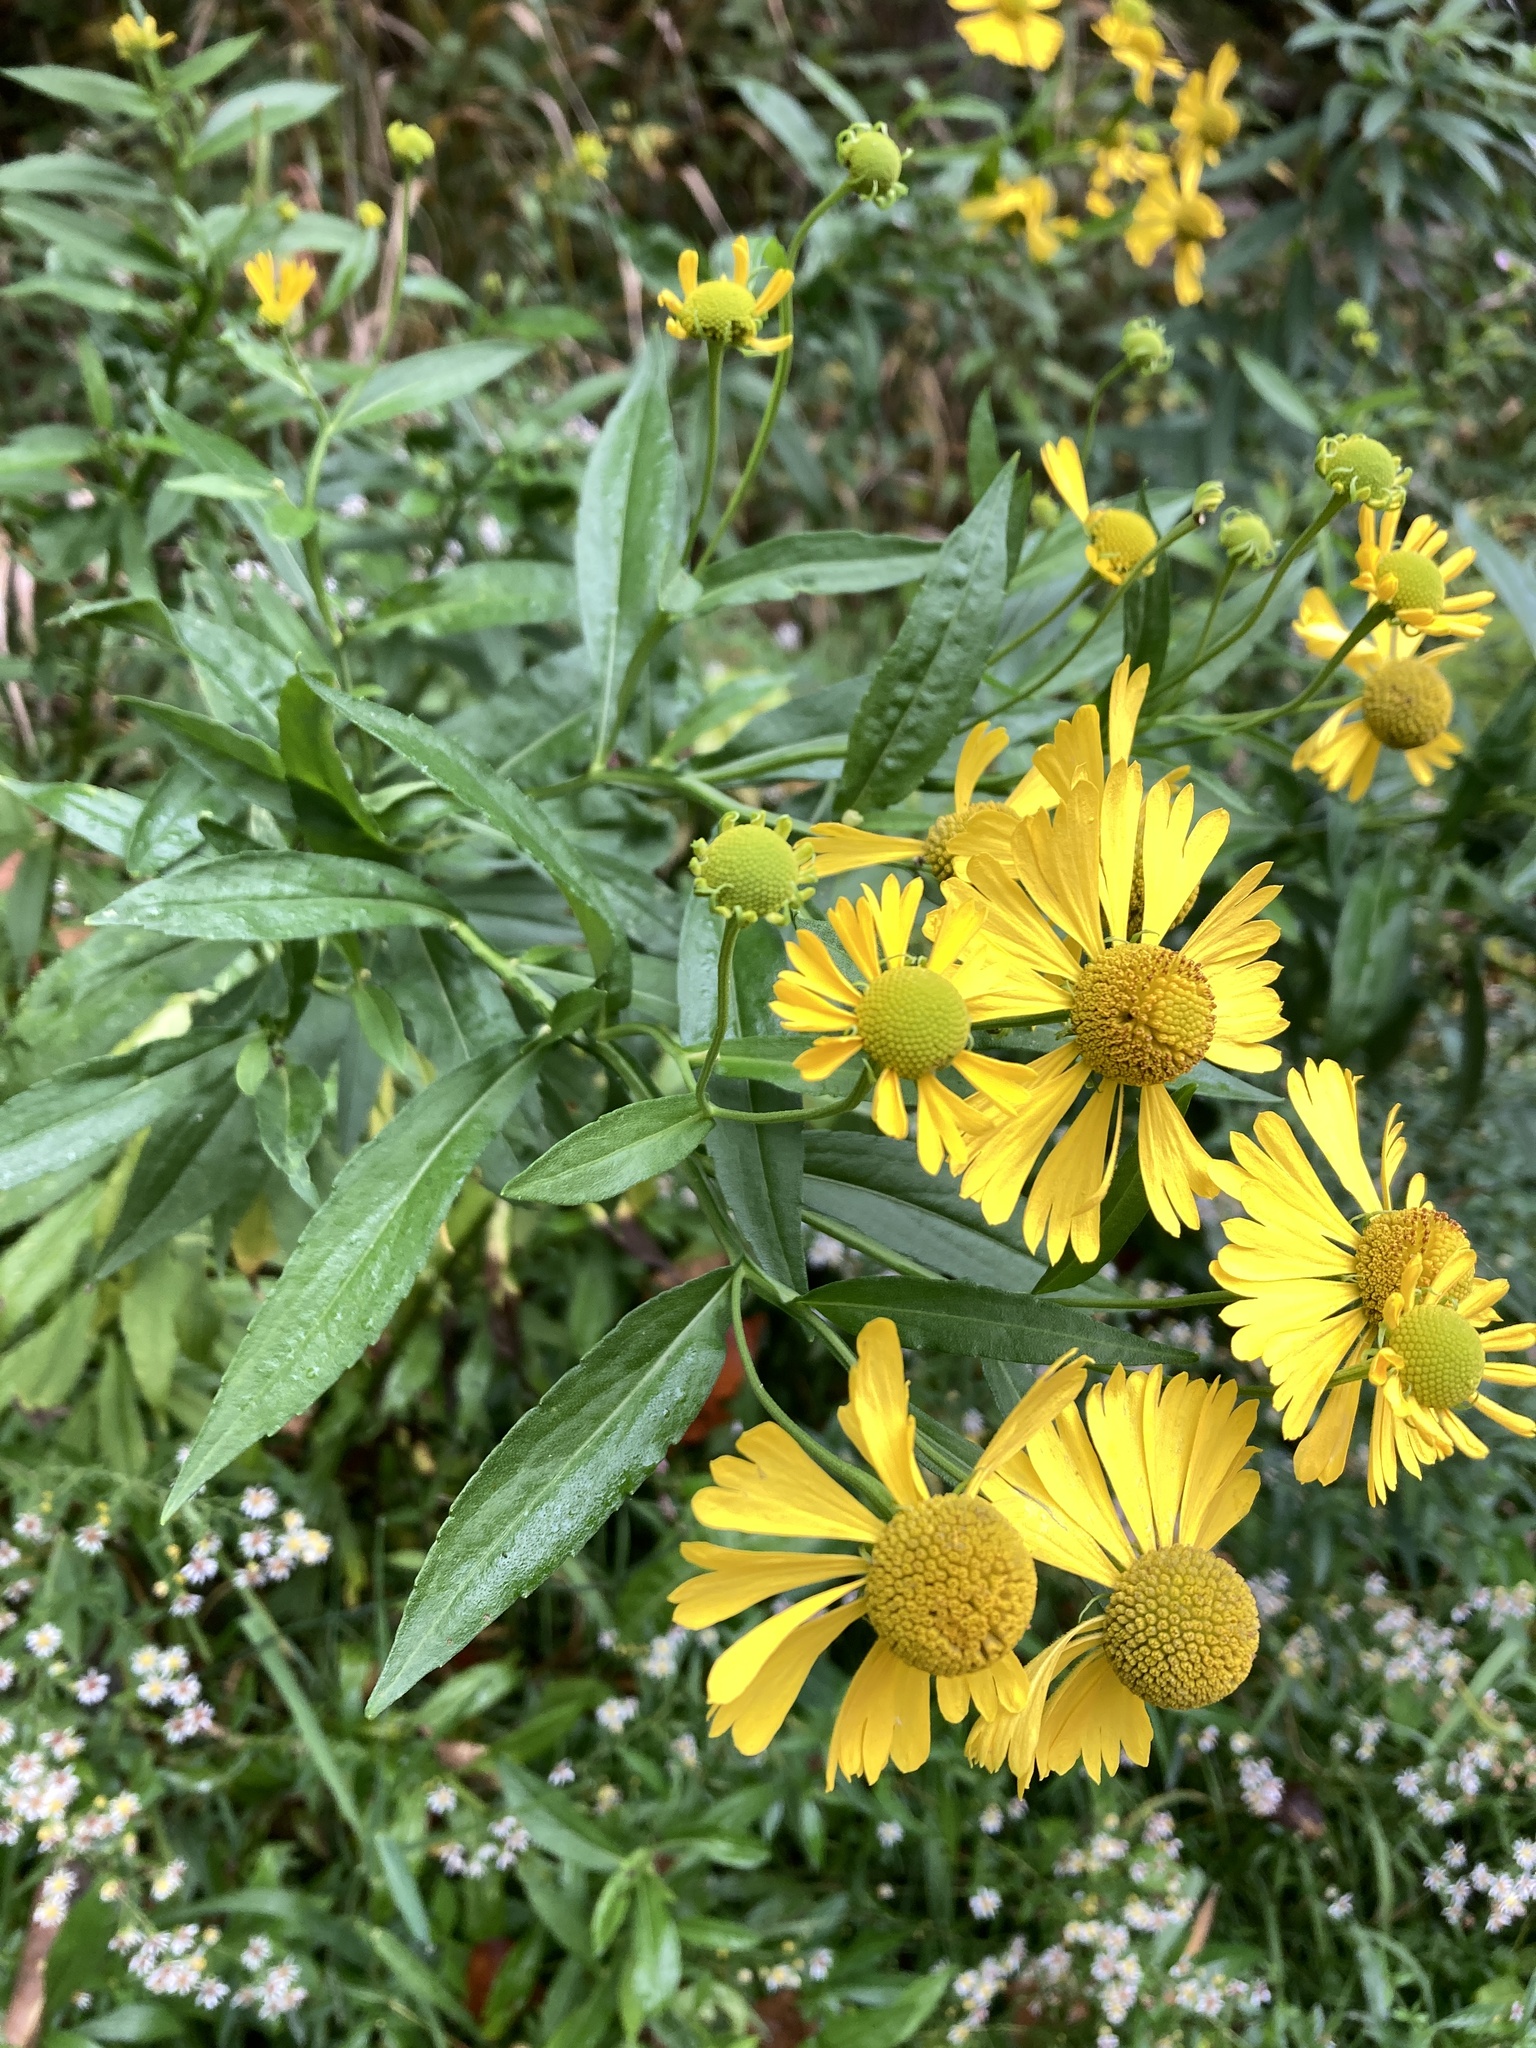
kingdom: Plantae
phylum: Tracheophyta
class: Magnoliopsida
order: Asterales
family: Asteraceae
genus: Helenium
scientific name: Helenium autumnale
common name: Sneezeweed
